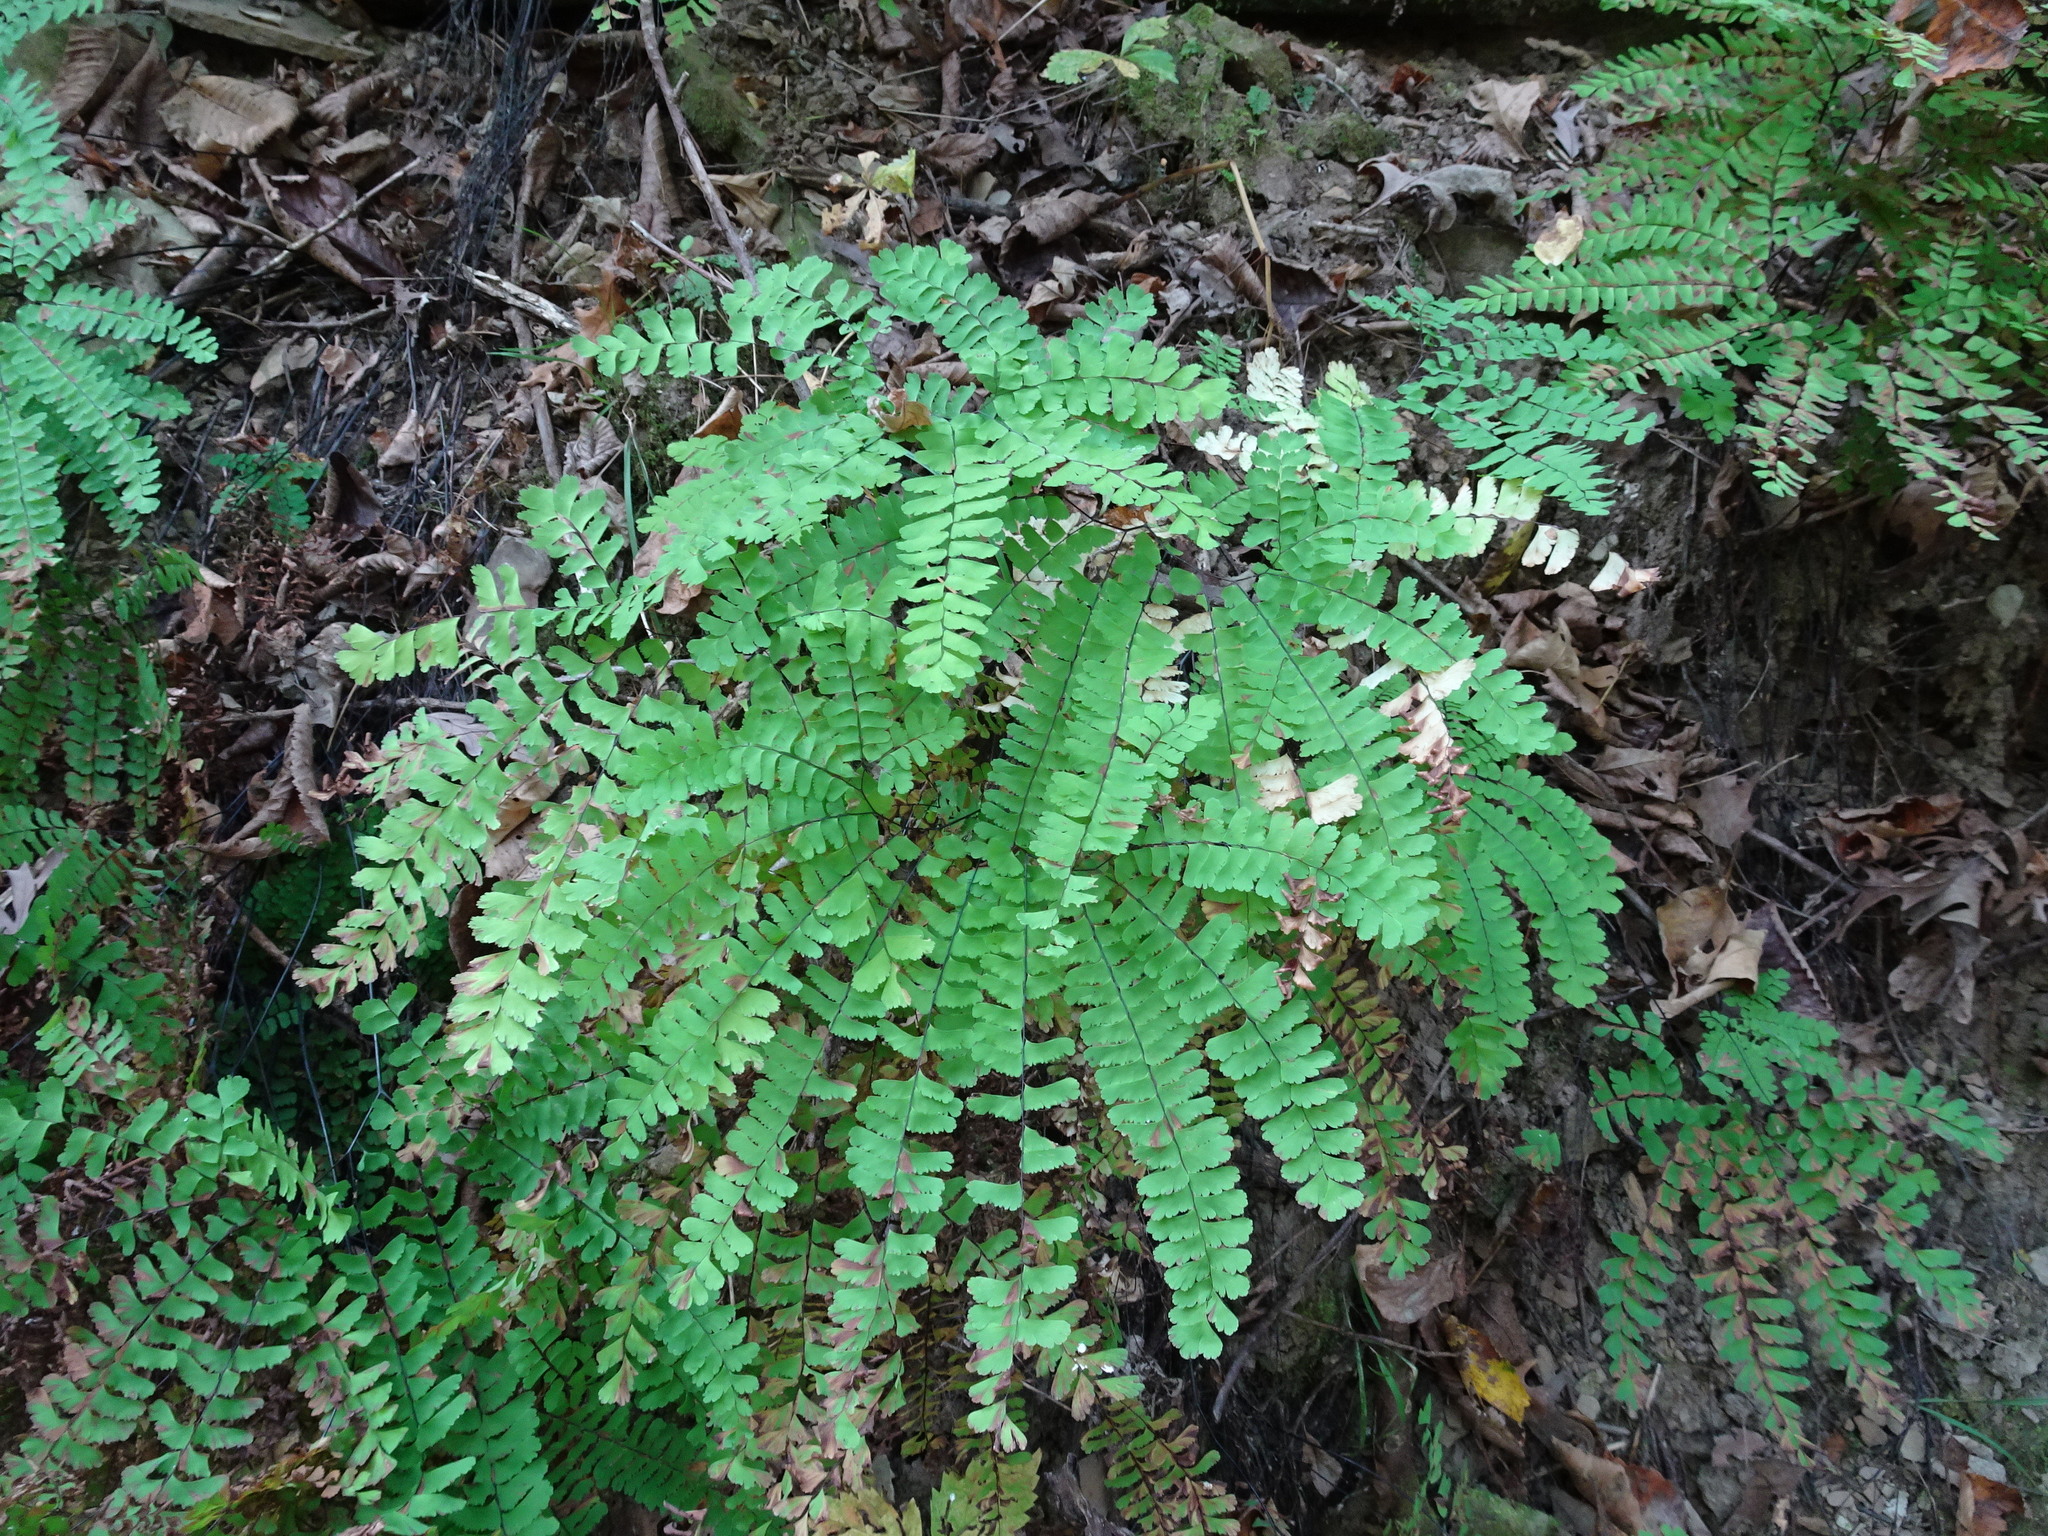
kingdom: Plantae
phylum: Tracheophyta
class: Polypodiopsida
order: Polypodiales
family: Pteridaceae
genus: Adiantum
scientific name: Adiantum pedatum
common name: Five-finger fern
